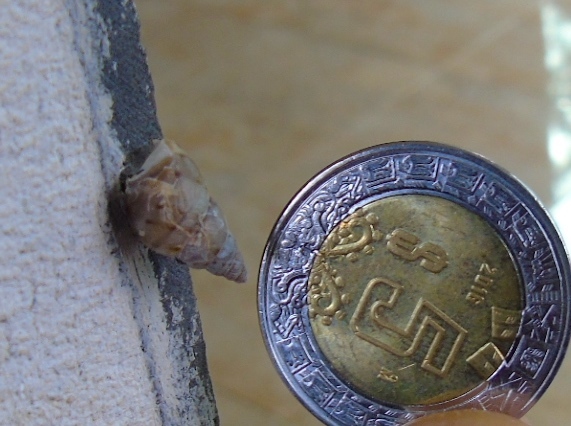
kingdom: Animalia
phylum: Mollusca
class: Gastropoda
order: Stylommatophora
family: Bulimulidae
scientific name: Bulimulidae
